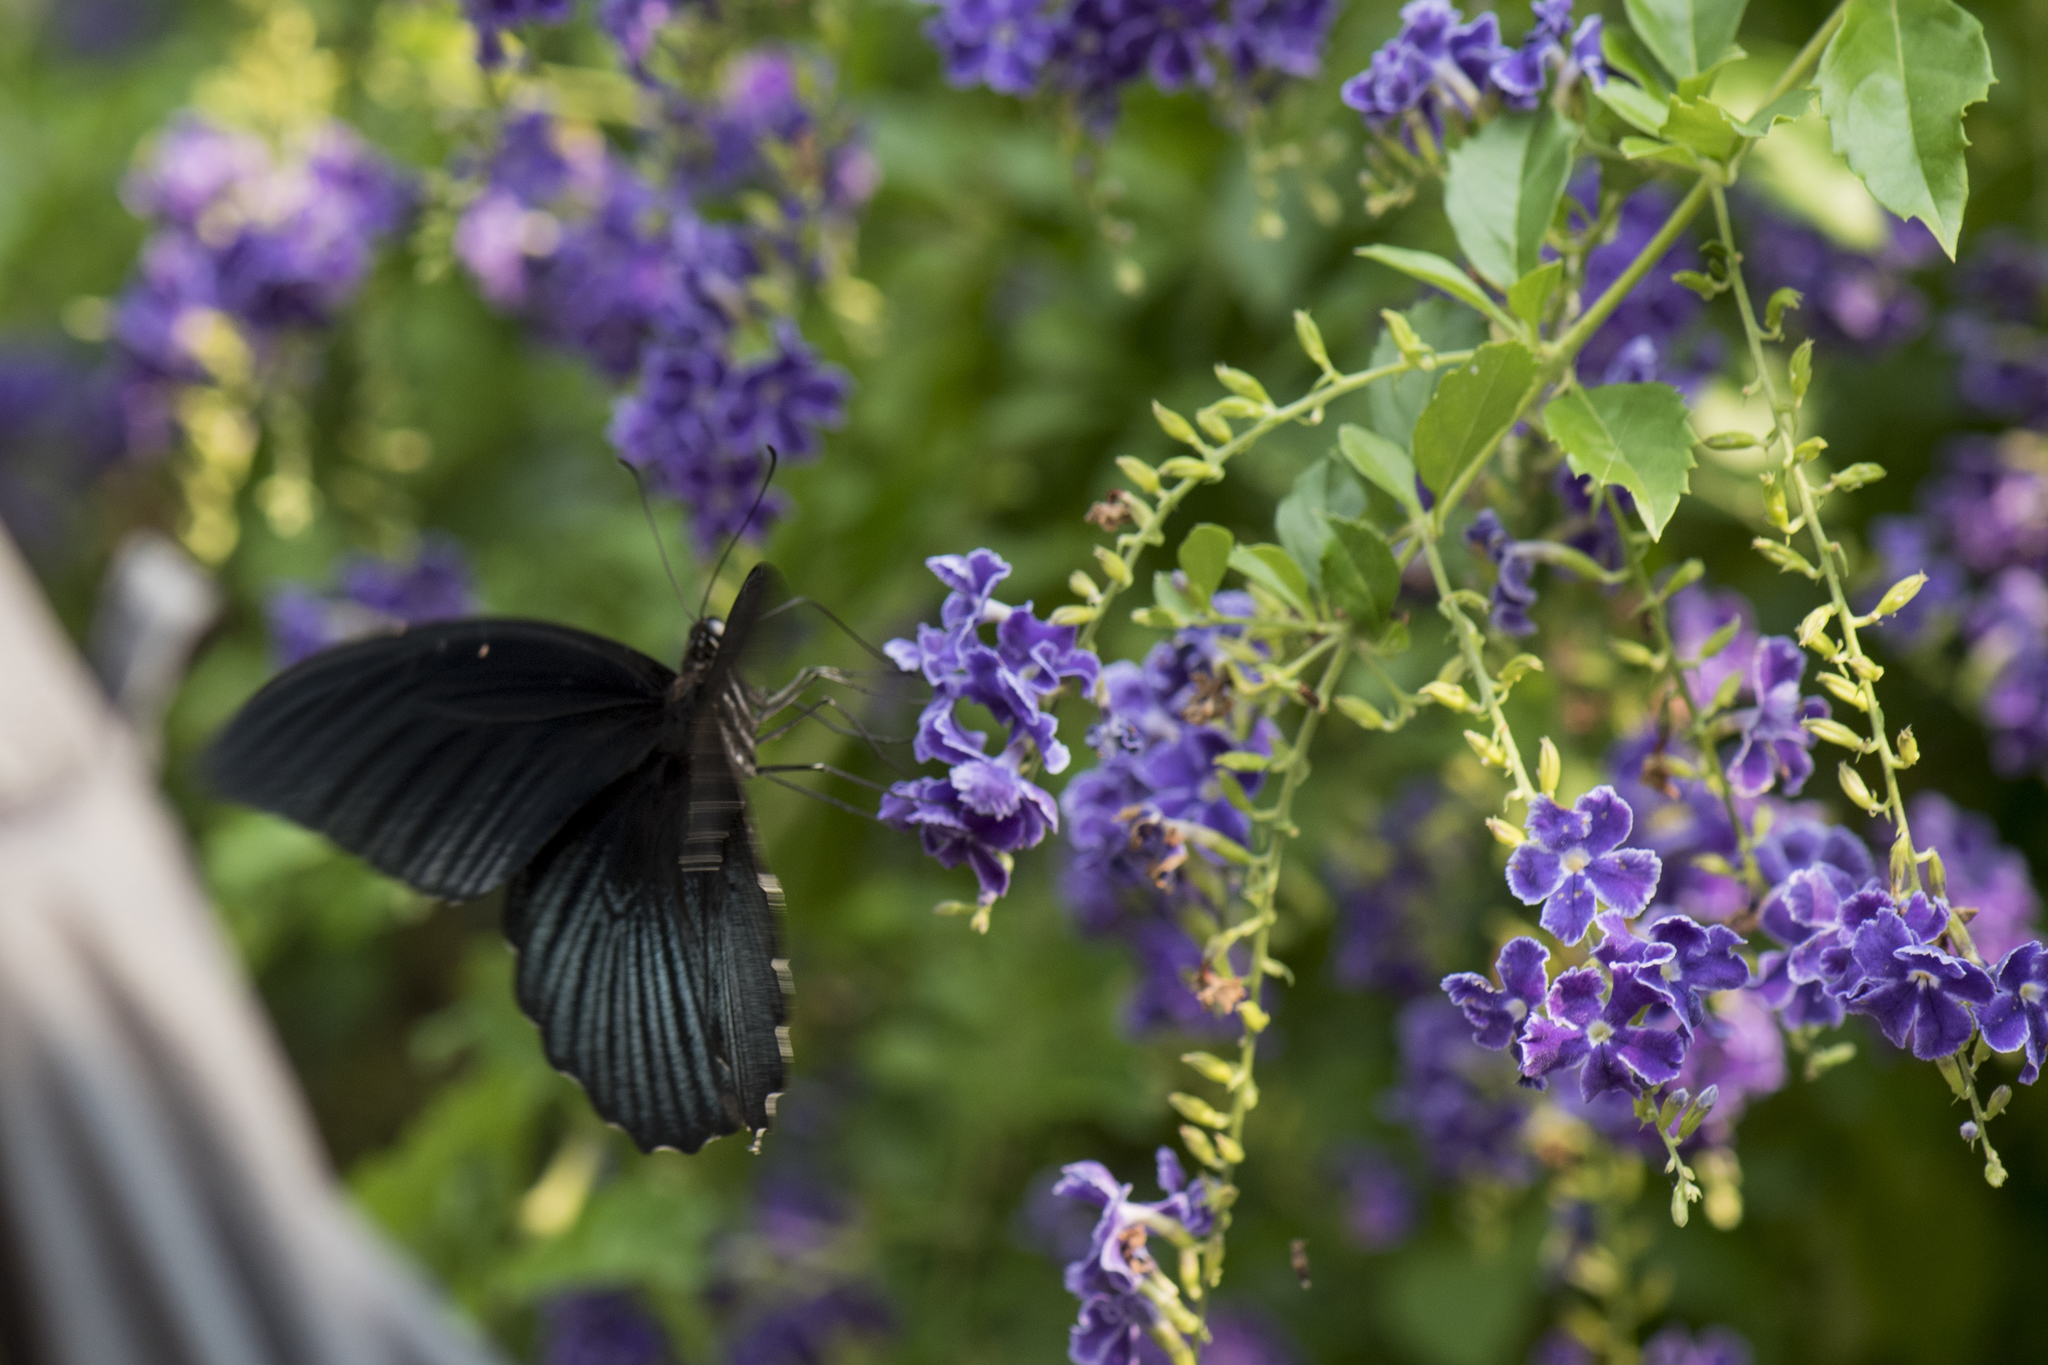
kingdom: Animalia
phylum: Arthropoda
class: Insecta
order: Lepidoptera
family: Papilionidae
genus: Papilio
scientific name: Papilio memnon
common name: Great mormon
